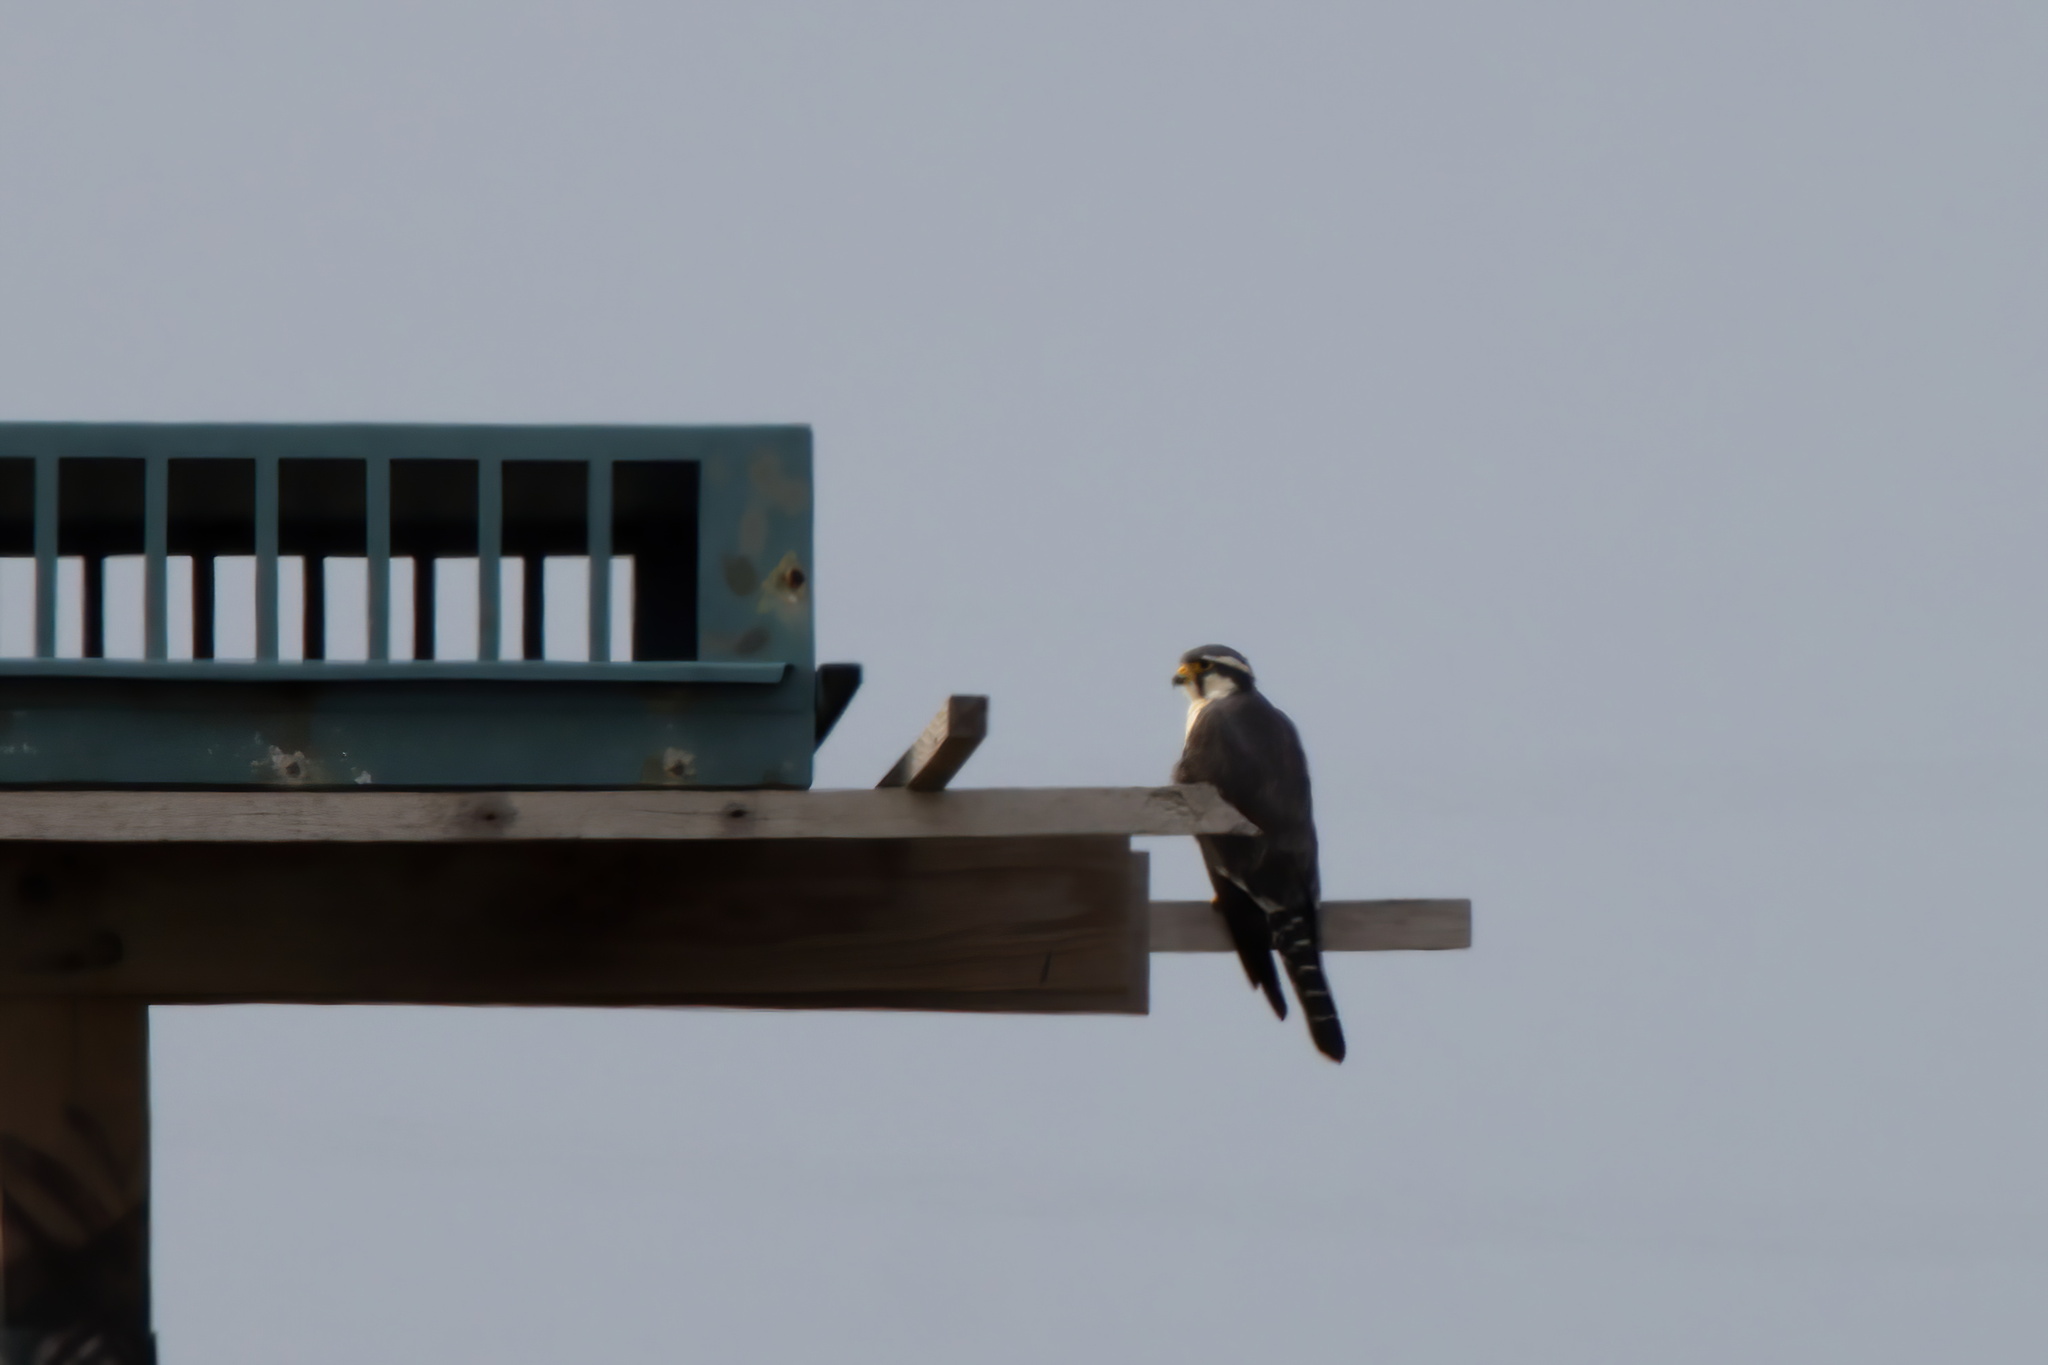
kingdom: Animalia
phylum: Chordata
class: Aves
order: Falconiformes
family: Falconidae
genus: Falco
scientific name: Falco femoralis
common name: Aplomado falcon
